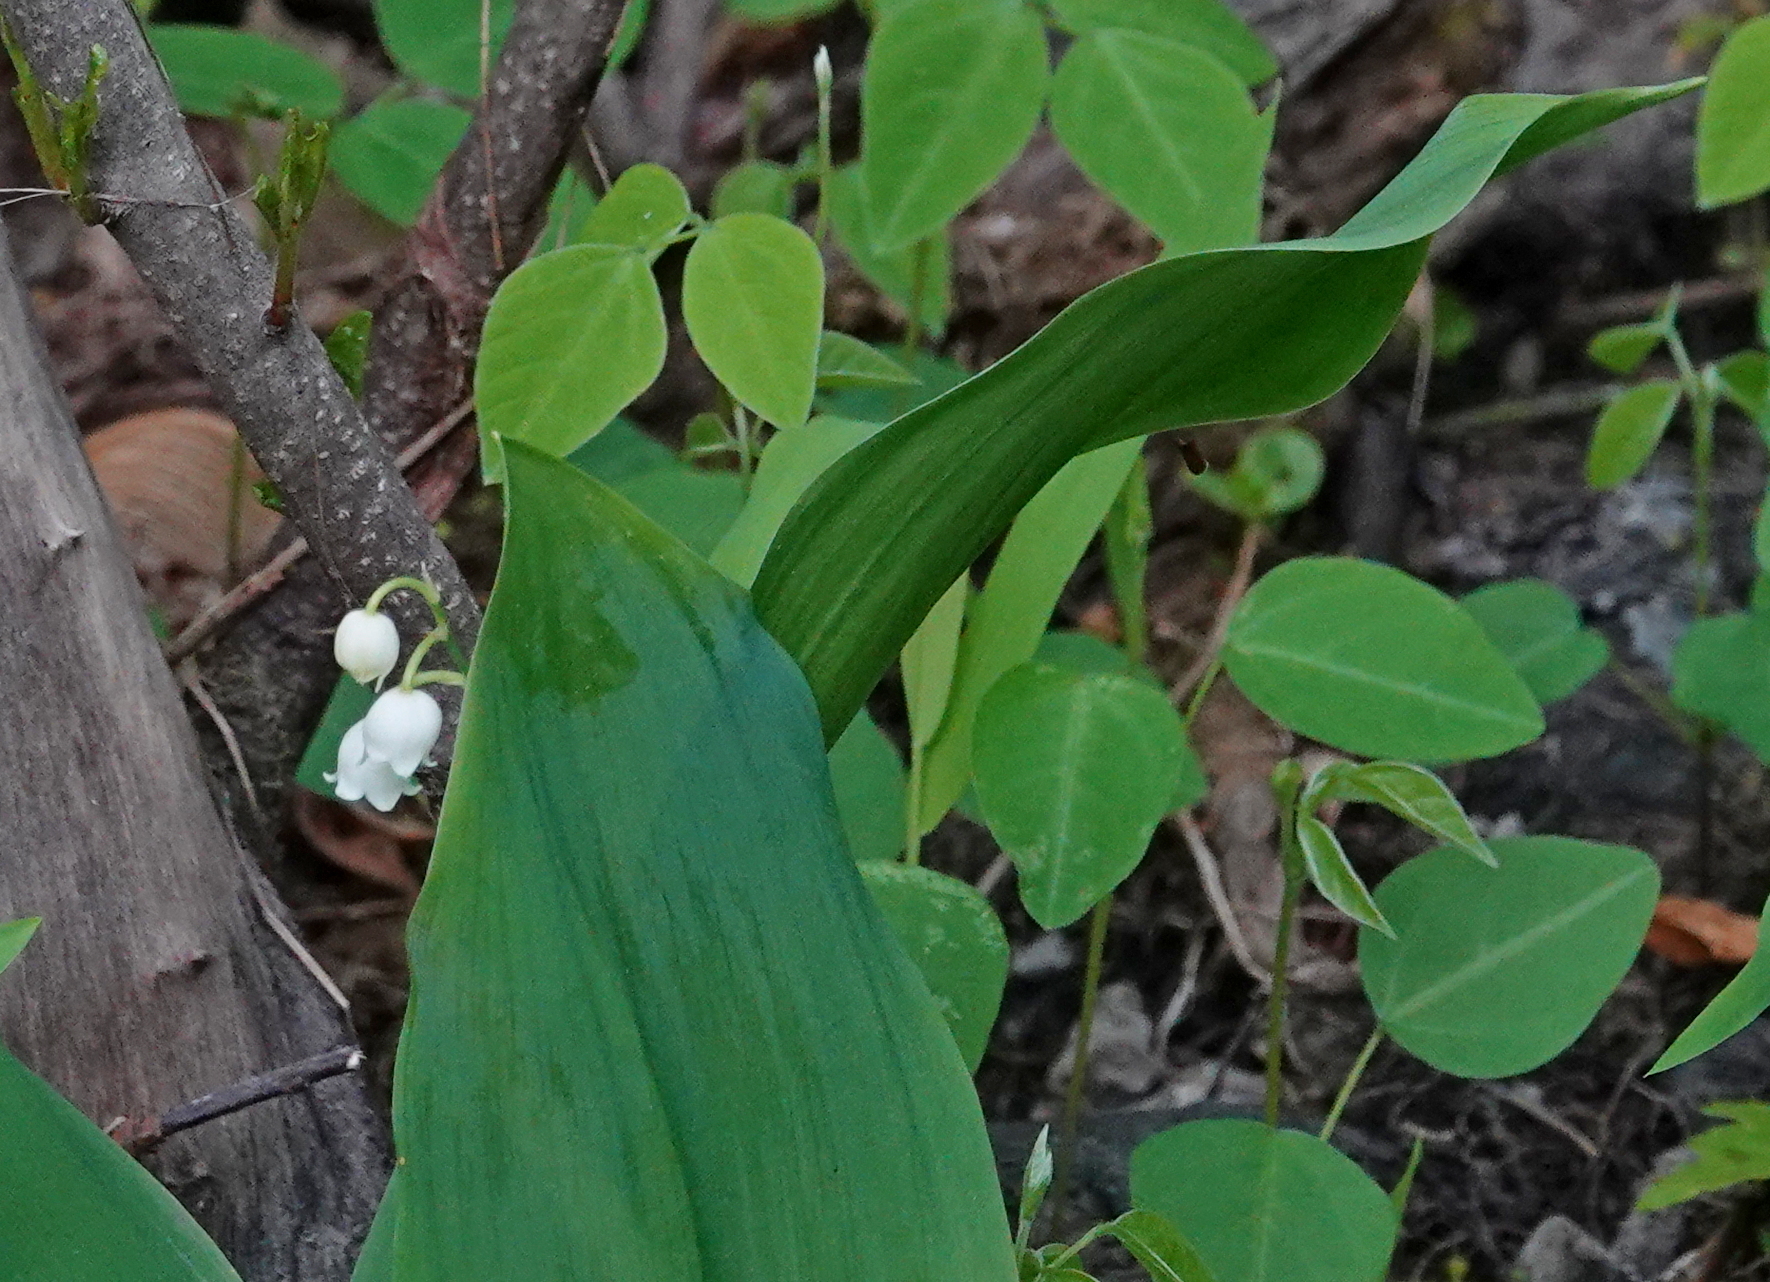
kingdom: Plantae
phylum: Tracheophyta
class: Liliopsida
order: Asparagales
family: Asparagaceae
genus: Convallaria
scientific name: Convallaria pseudomajalis
